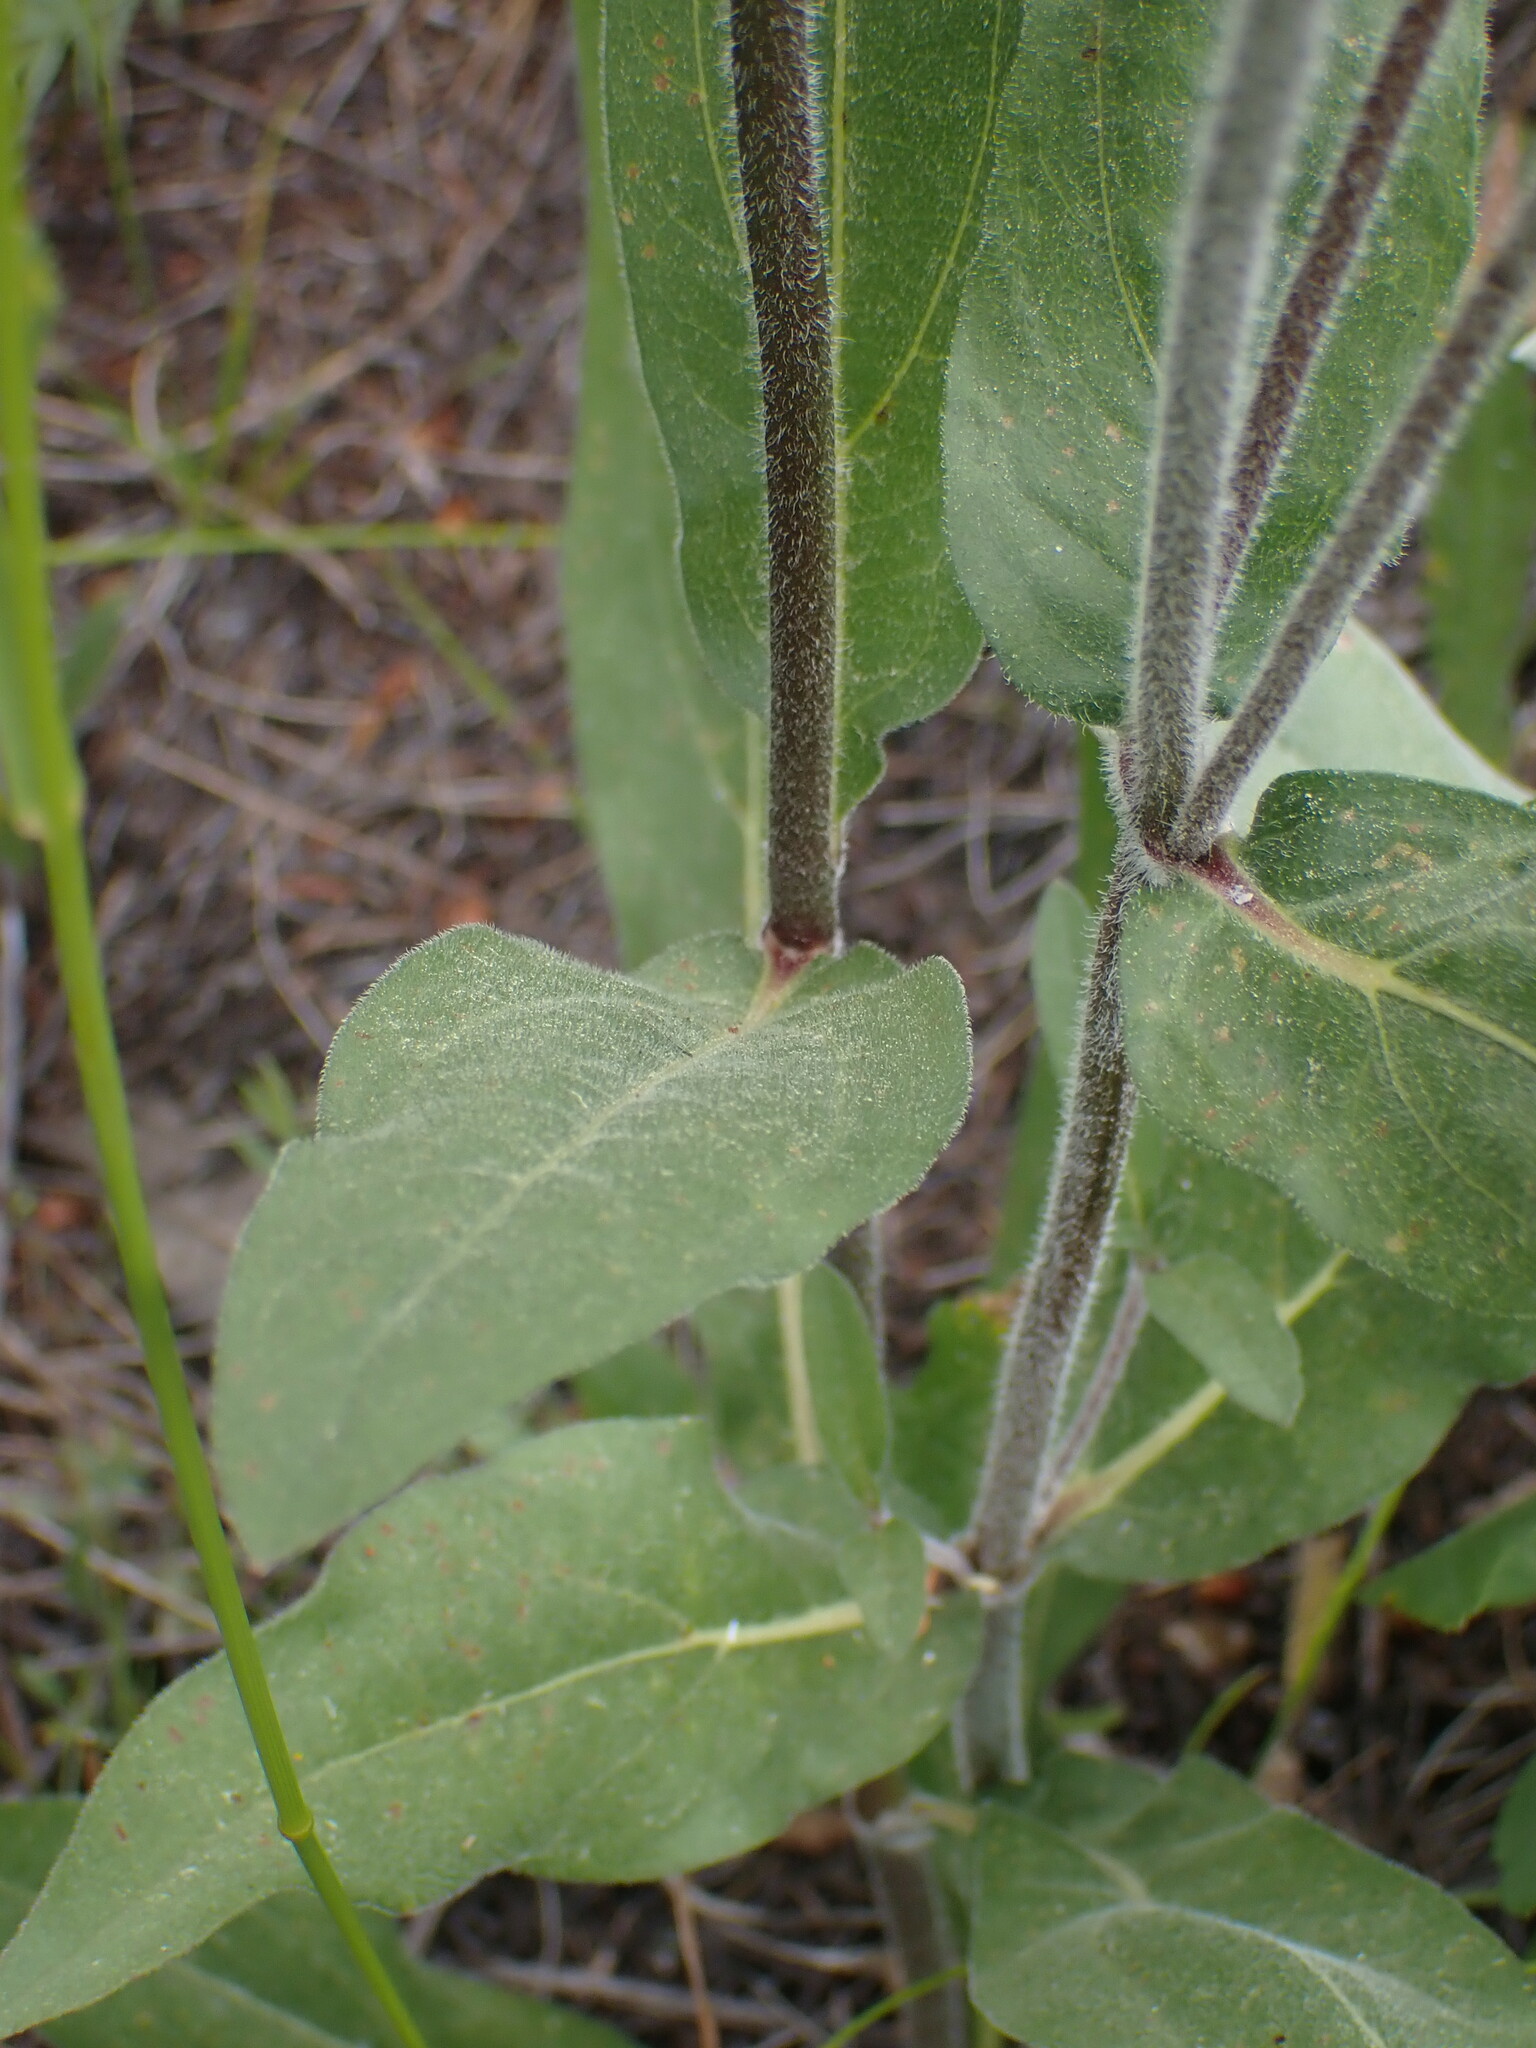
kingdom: Plantae
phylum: Tracheophyta
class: Magnoliopsida
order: Asterales
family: Asteraceae
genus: Helianthella
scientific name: Helianthella uniflora
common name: Rocky mountain dwarf sunflower
